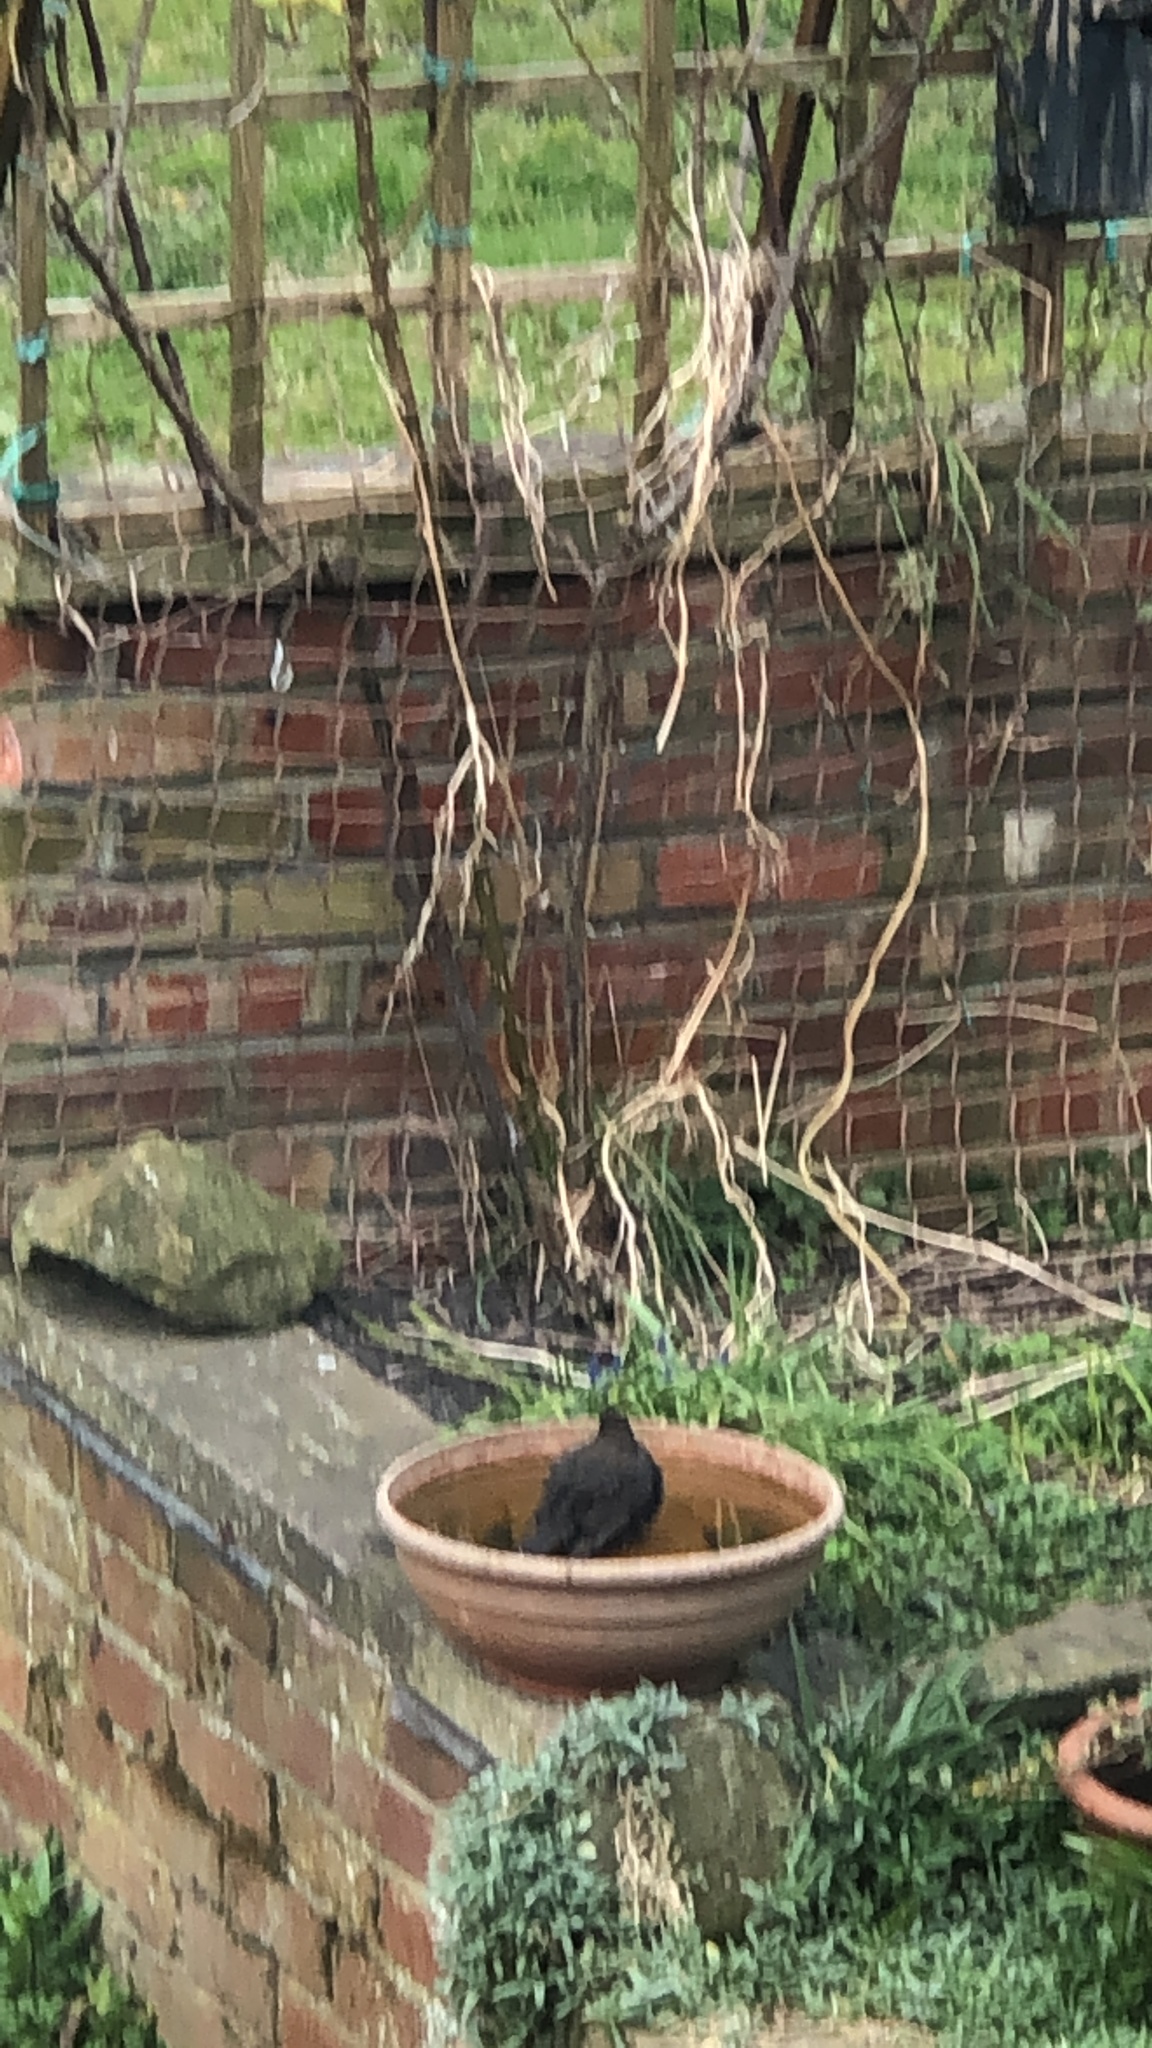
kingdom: Animalia
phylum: Chordata
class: Aves
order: Passeriformes
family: Turdidae
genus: Turdus
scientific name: Turdus merula
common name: Common blackbird
